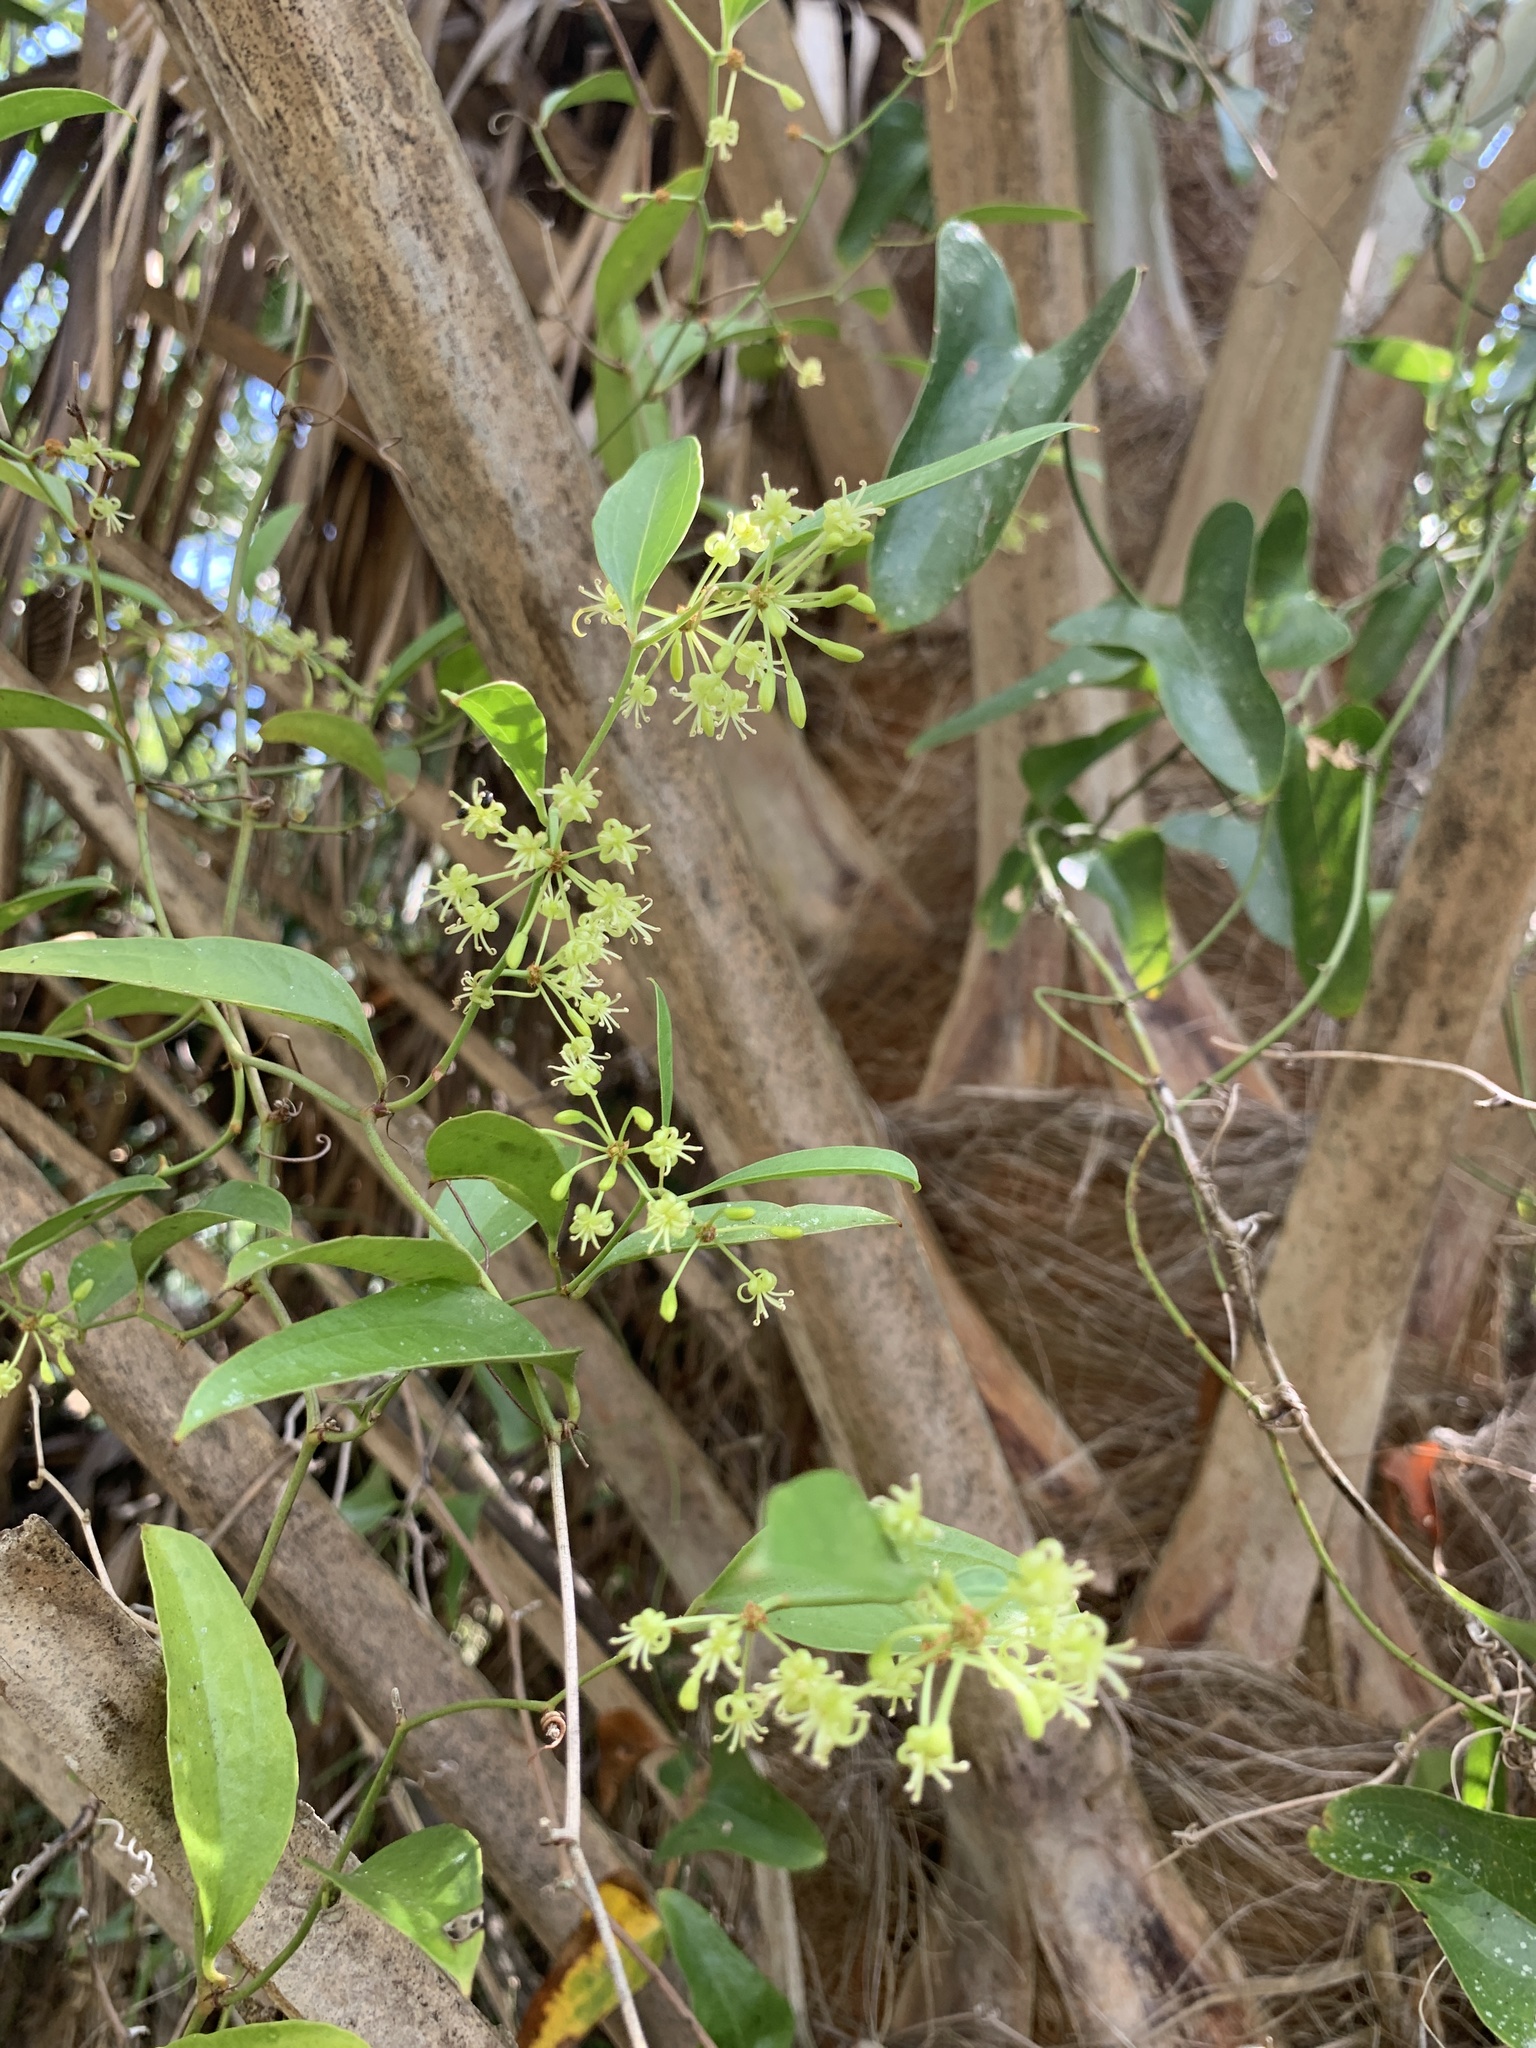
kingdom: Plantae
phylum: Tracheophyta
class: Liliopsida
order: Liliales
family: Smilacaceae
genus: Smilax
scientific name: Smilax auriculata
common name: Wild bamboo
